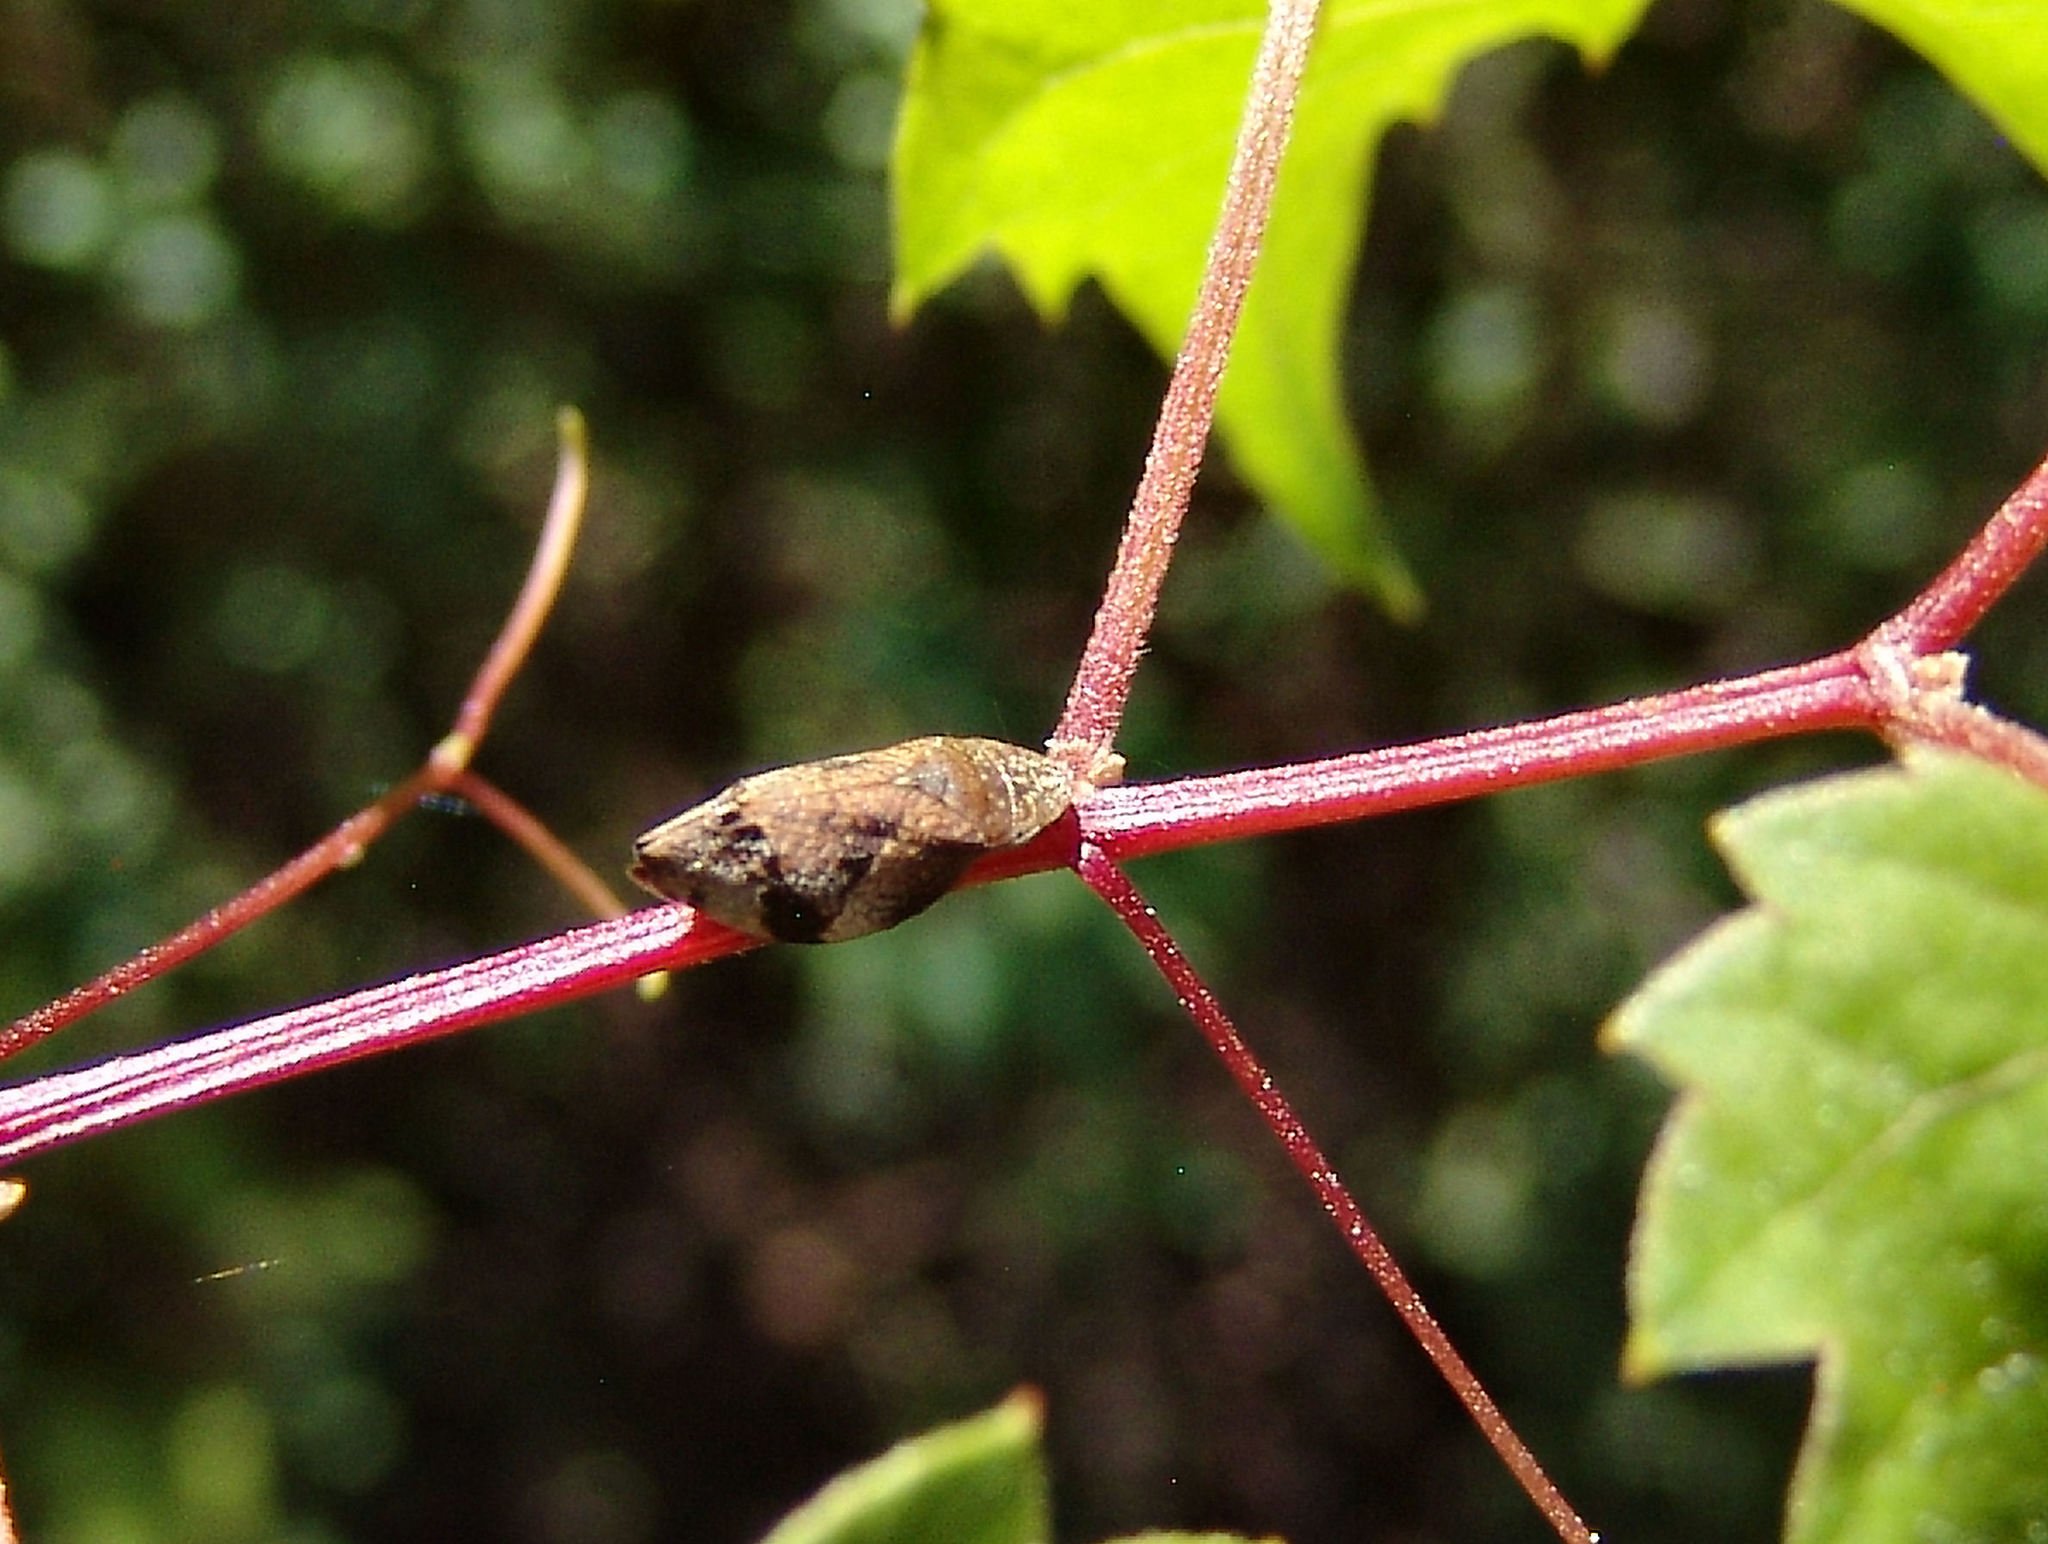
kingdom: Animalia
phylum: Arthropoda
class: Insecta
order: Hemiptera
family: Aphrophoridae
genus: Lepyronia
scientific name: Lepyronia quadrangularis
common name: Diamond-backed spittlebug
